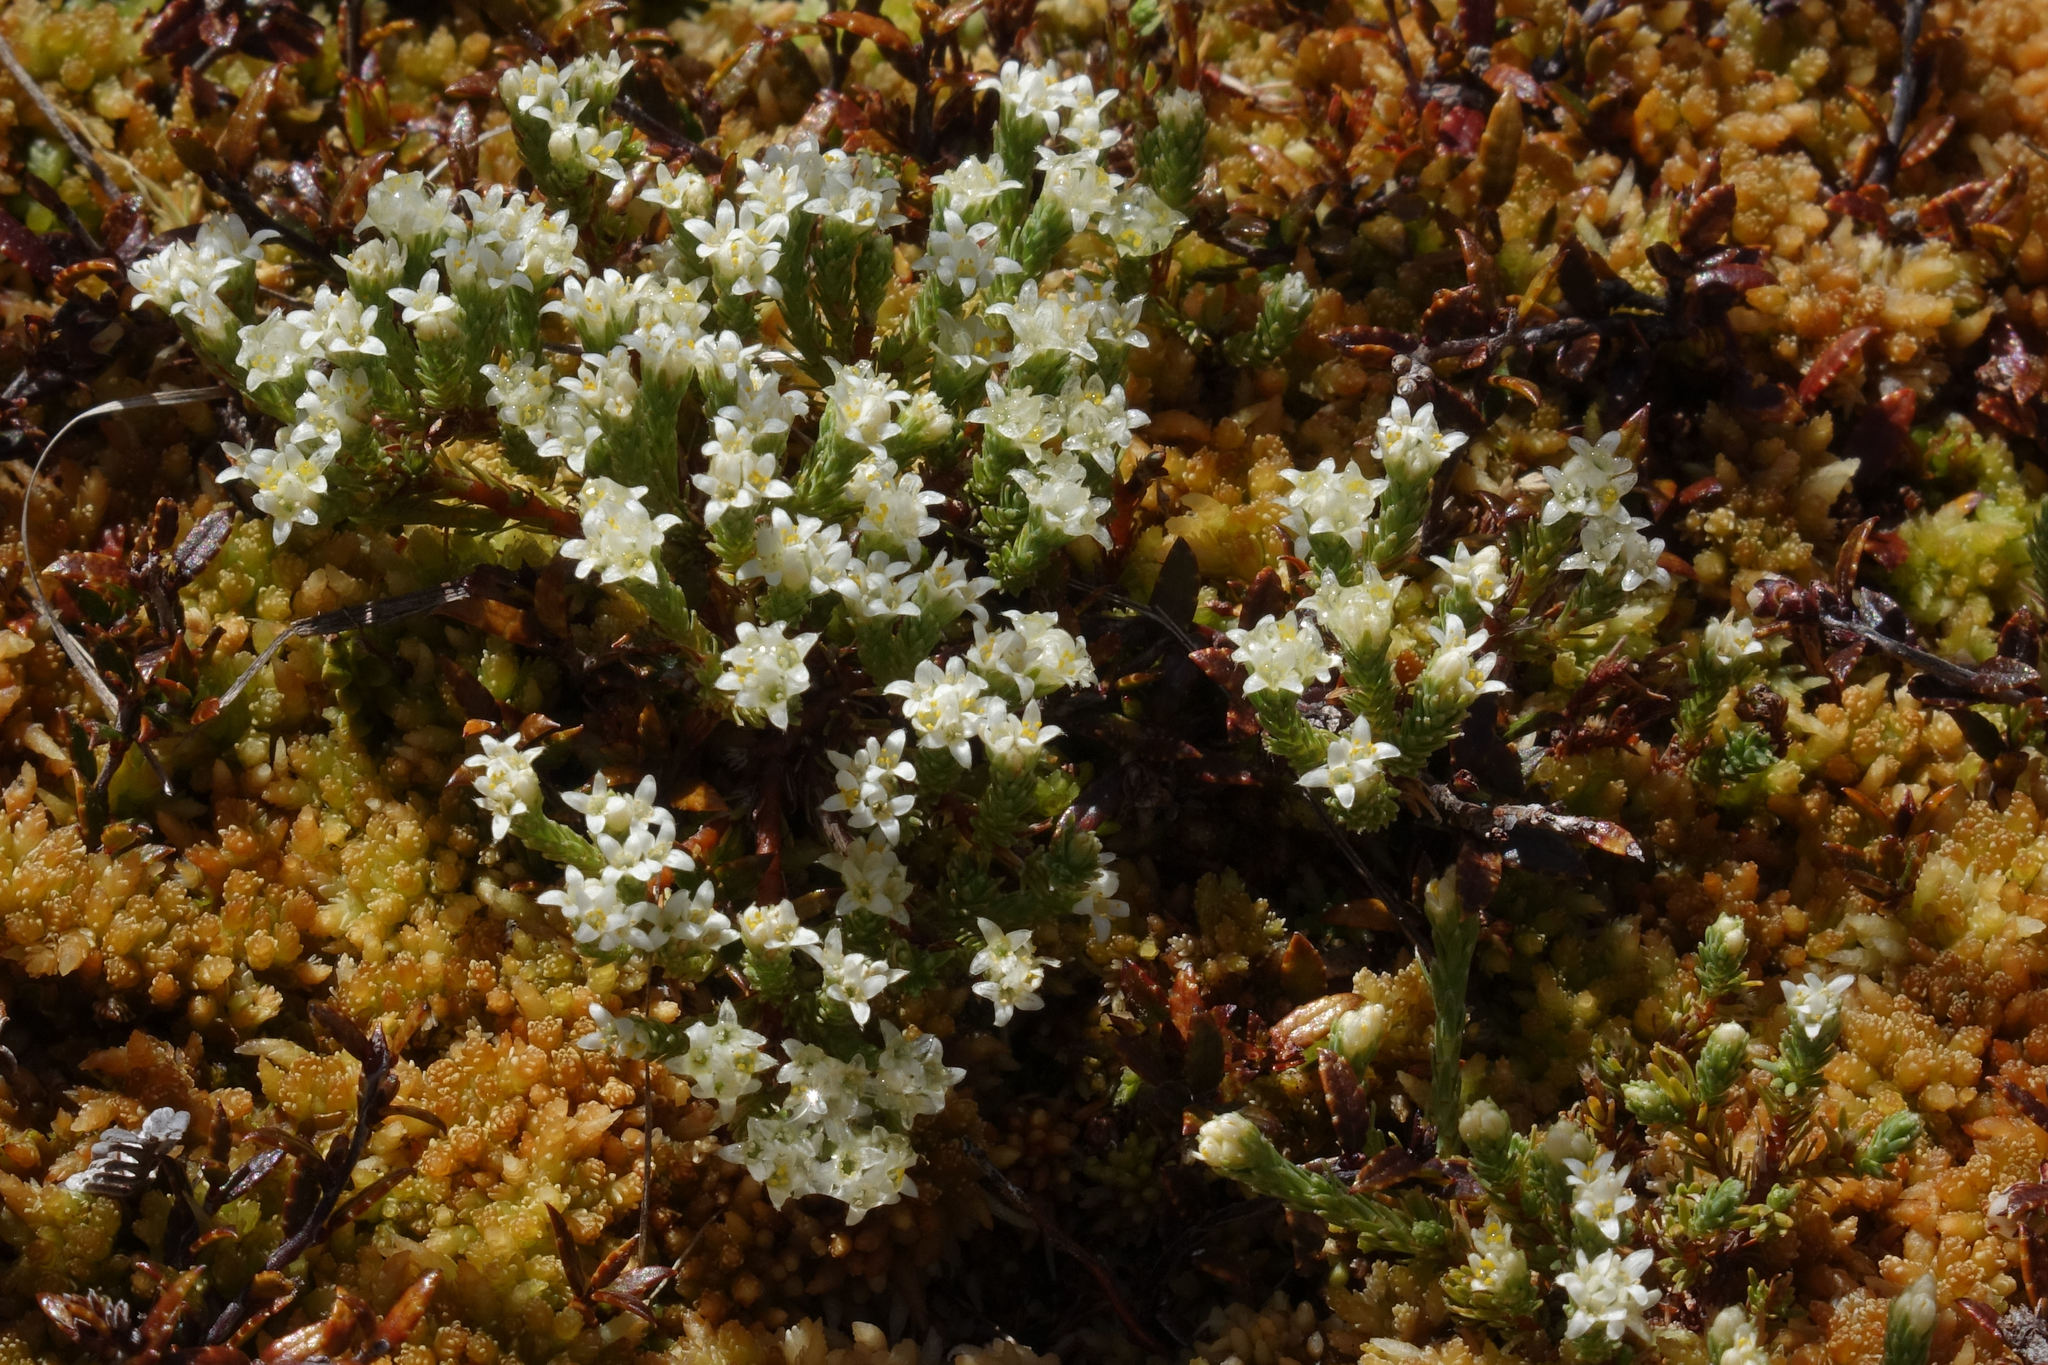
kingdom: Plantae
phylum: Tracheophyta
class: Magnoliopsida
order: Malvales
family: Thymelaeaceae
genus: Kelleria
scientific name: Kelleria dieffenbachii
